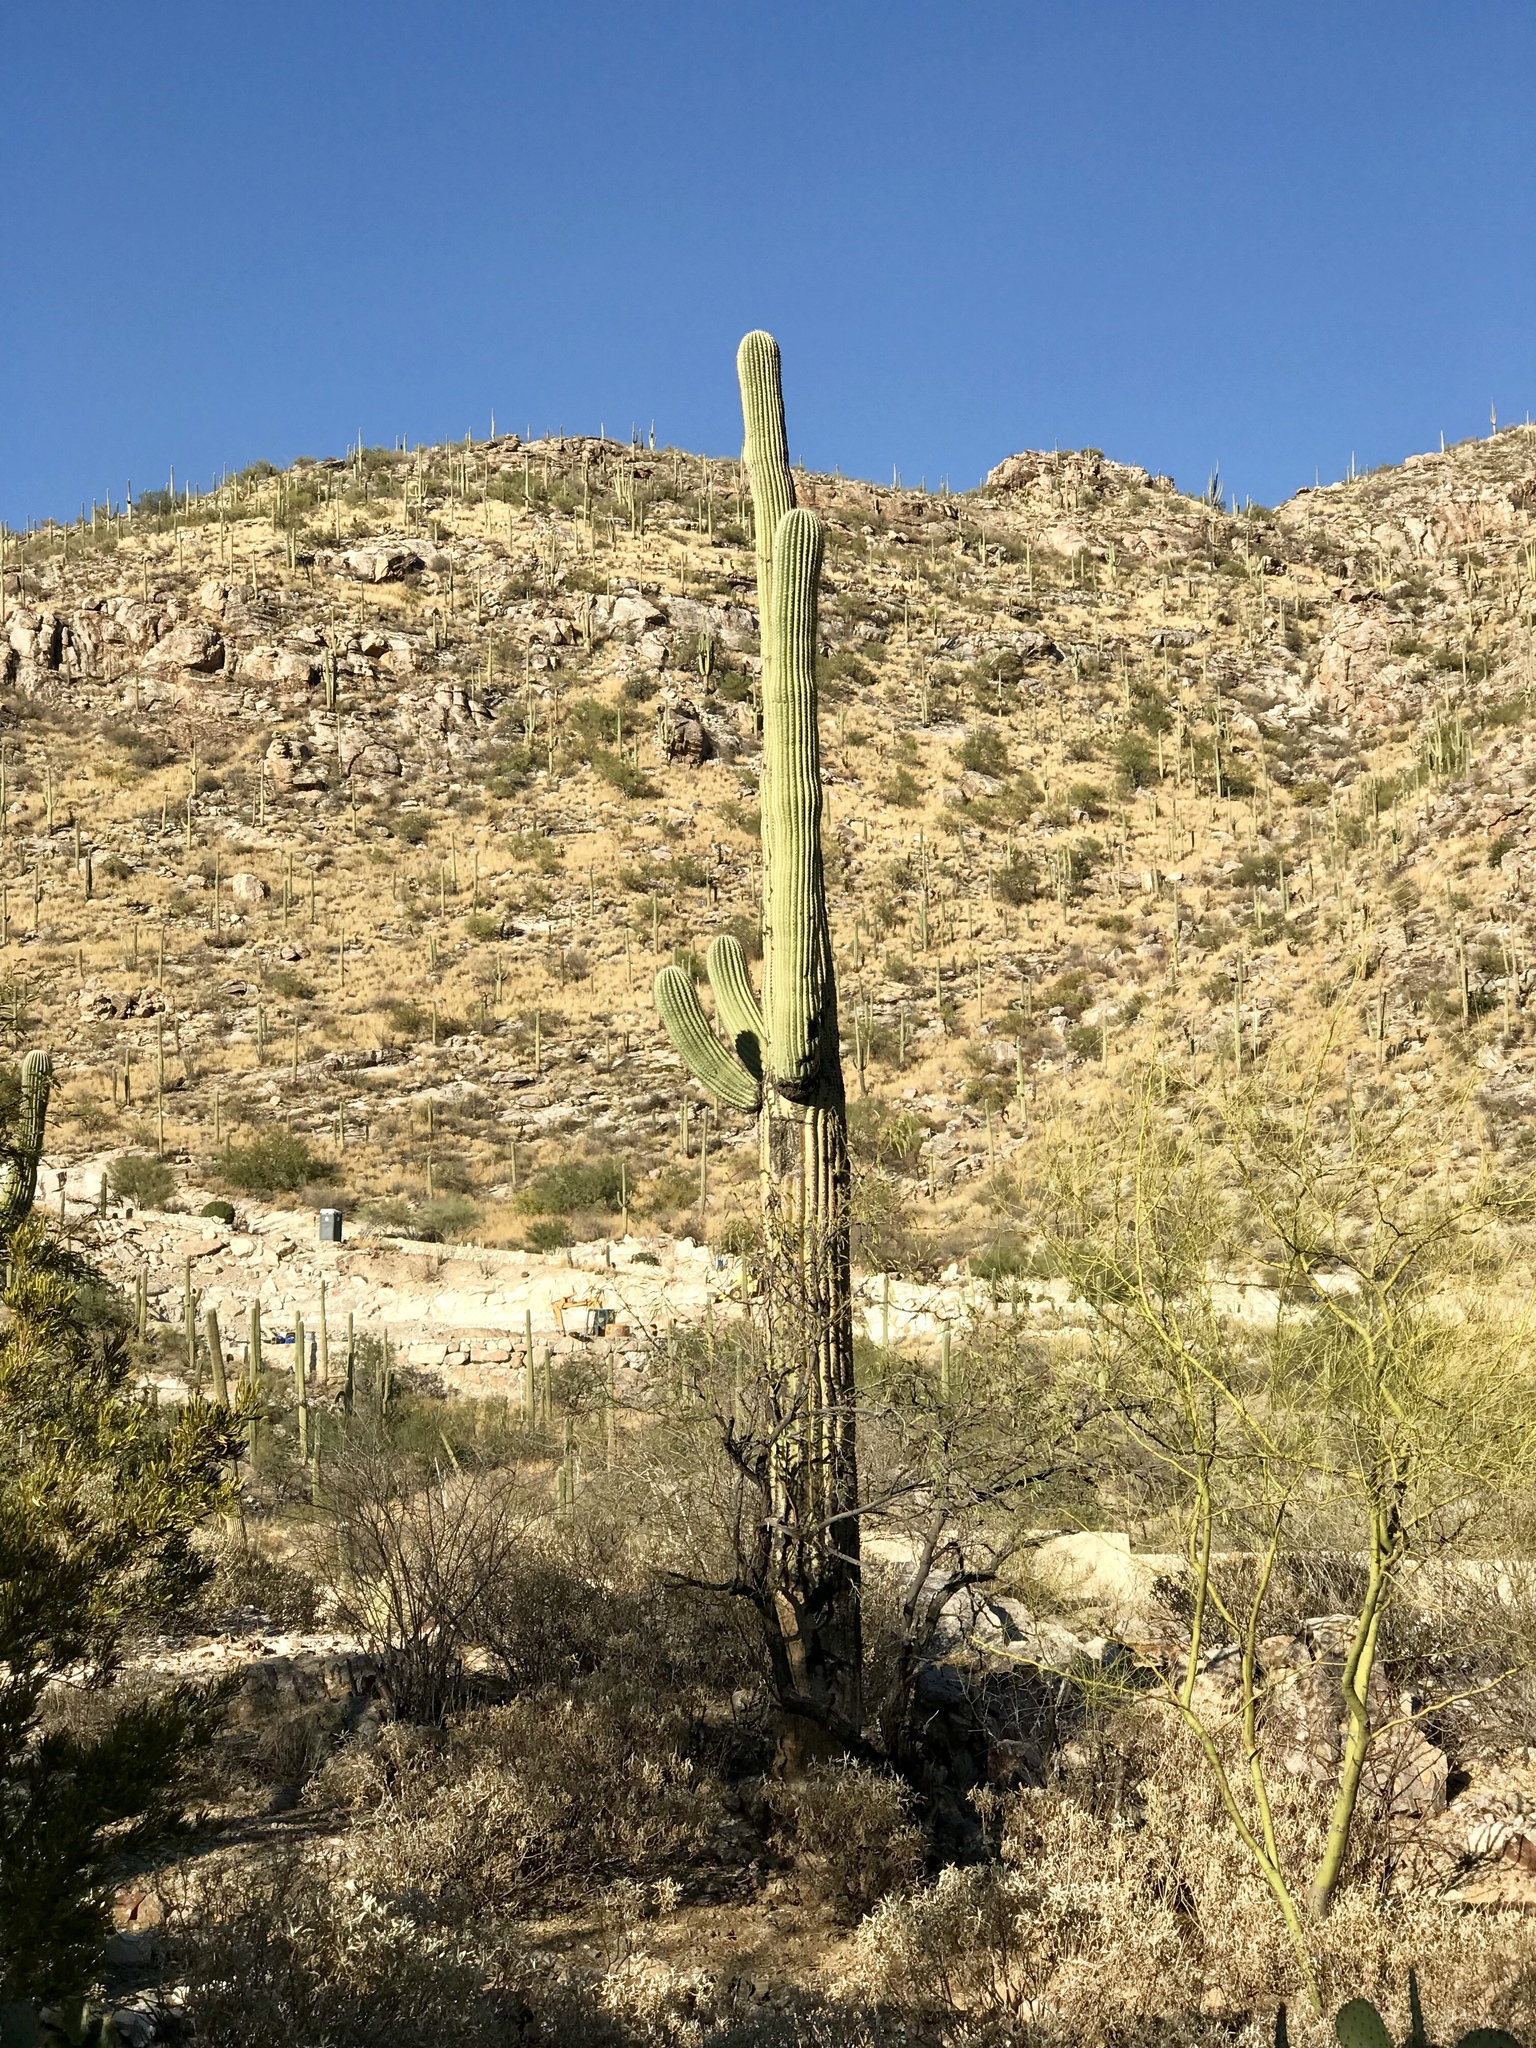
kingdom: Plantae
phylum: Tracheophyta
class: Magnoliopsida
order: Caryophyllales
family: Cactaceae
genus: Carnegiea
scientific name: Carnegiea gigantea
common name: Saguaro
